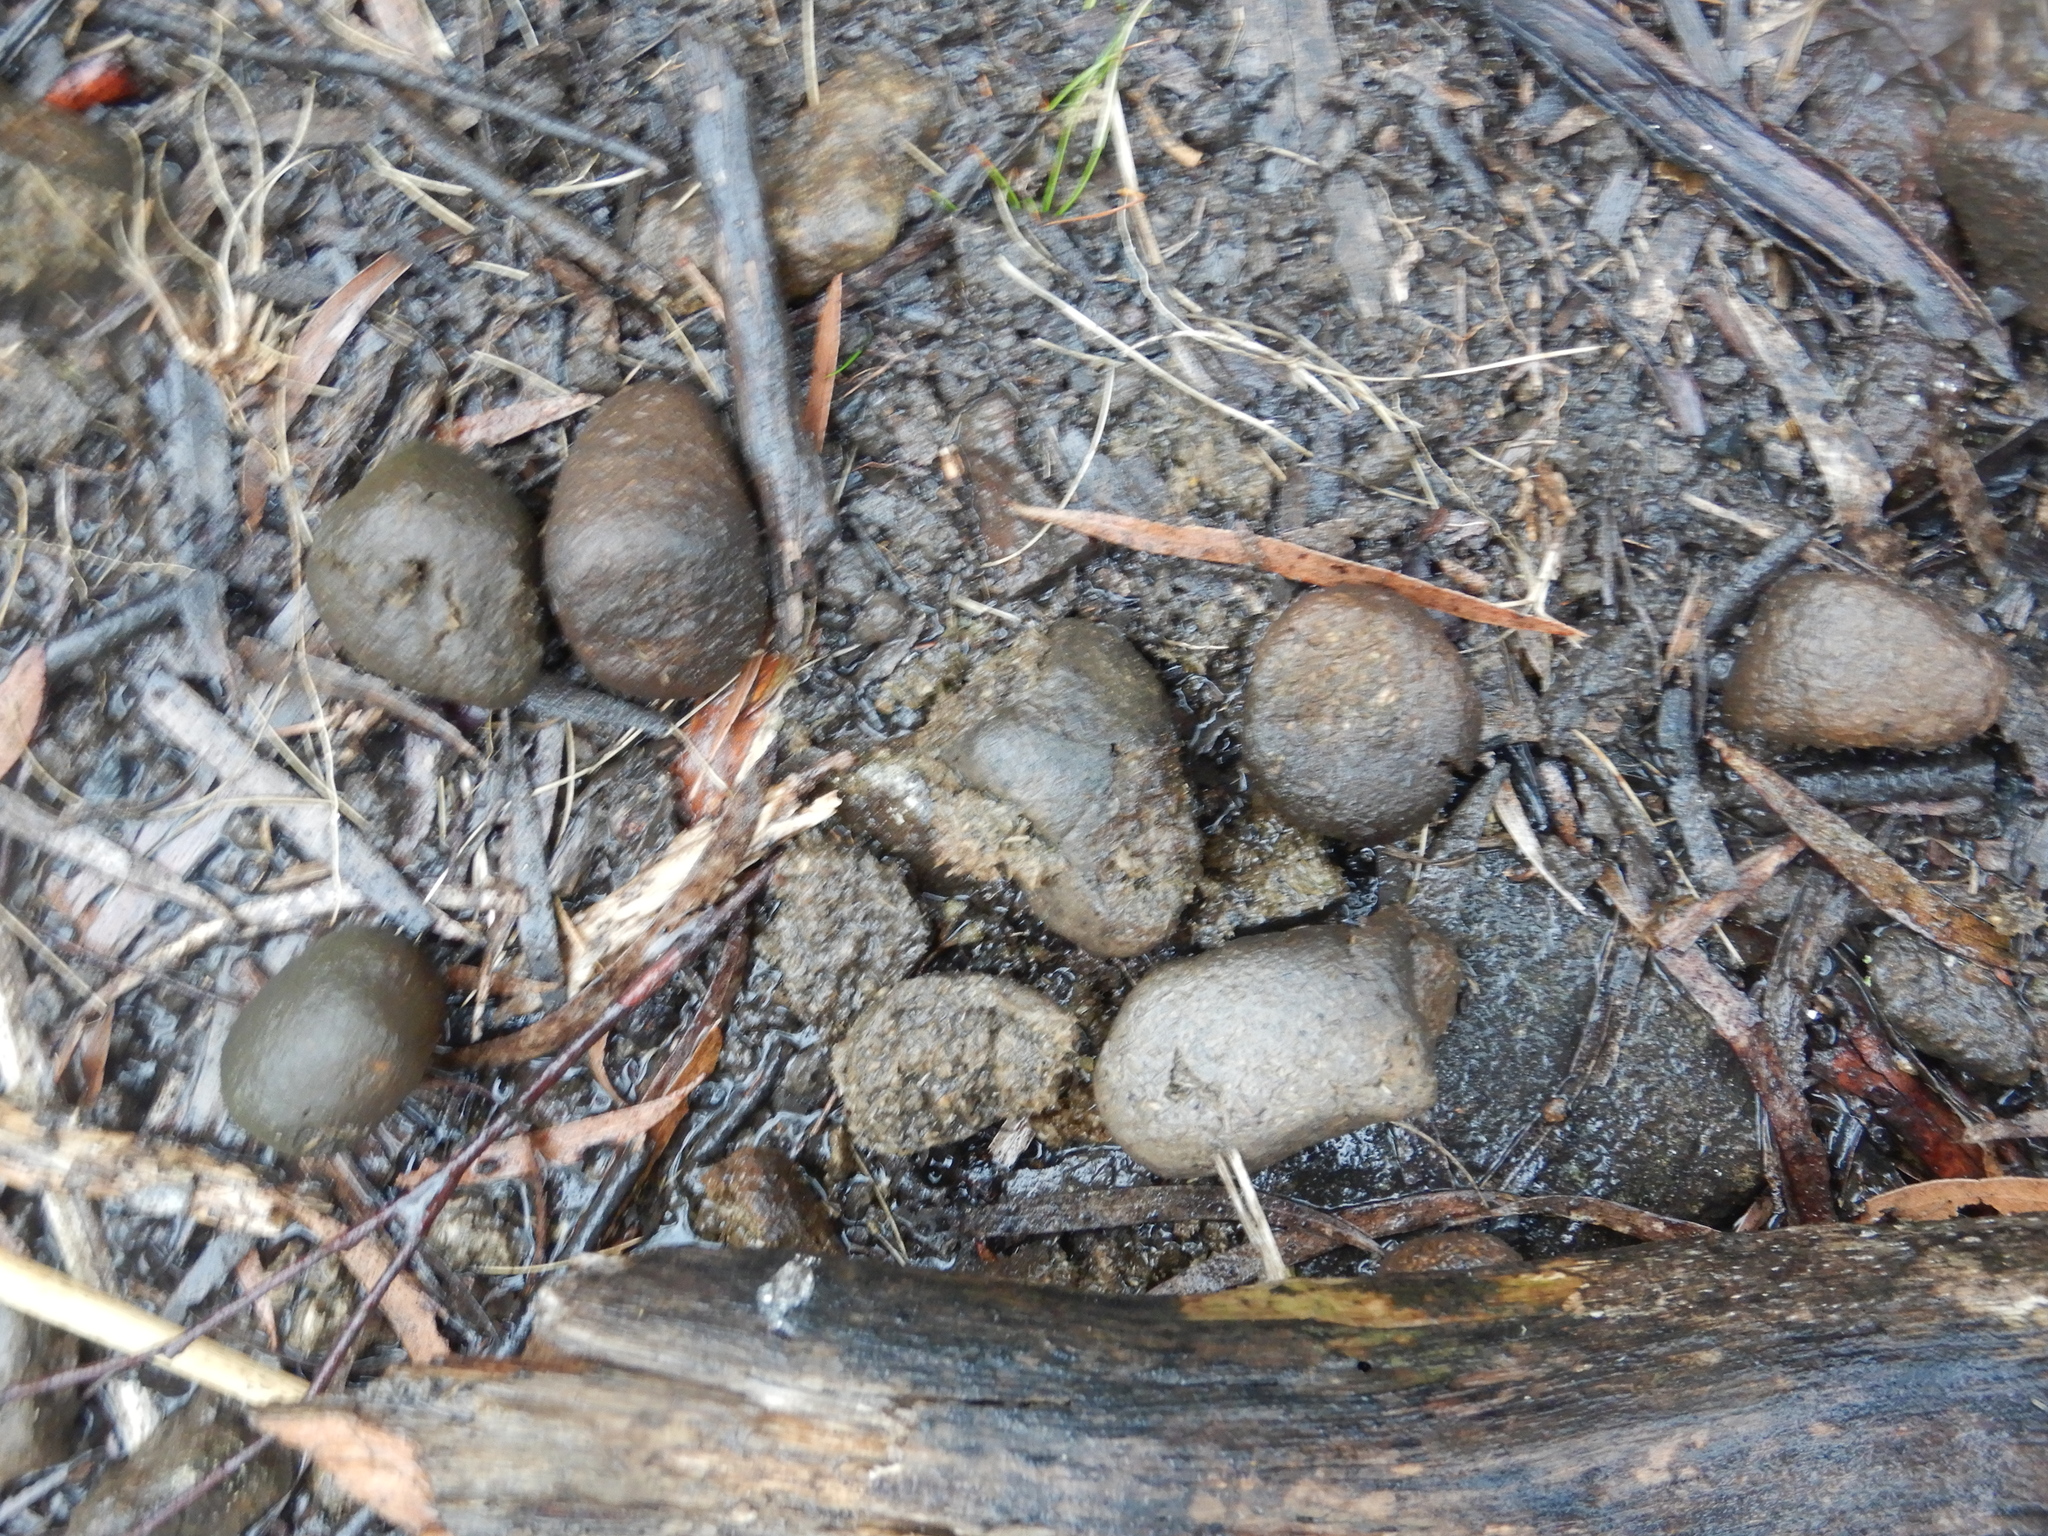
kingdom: Animalia
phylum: Chordata
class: Mammalia
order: Diprotodontia
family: Vombatidae
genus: Vombatus
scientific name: Vombatus ursinus
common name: Common wombat
